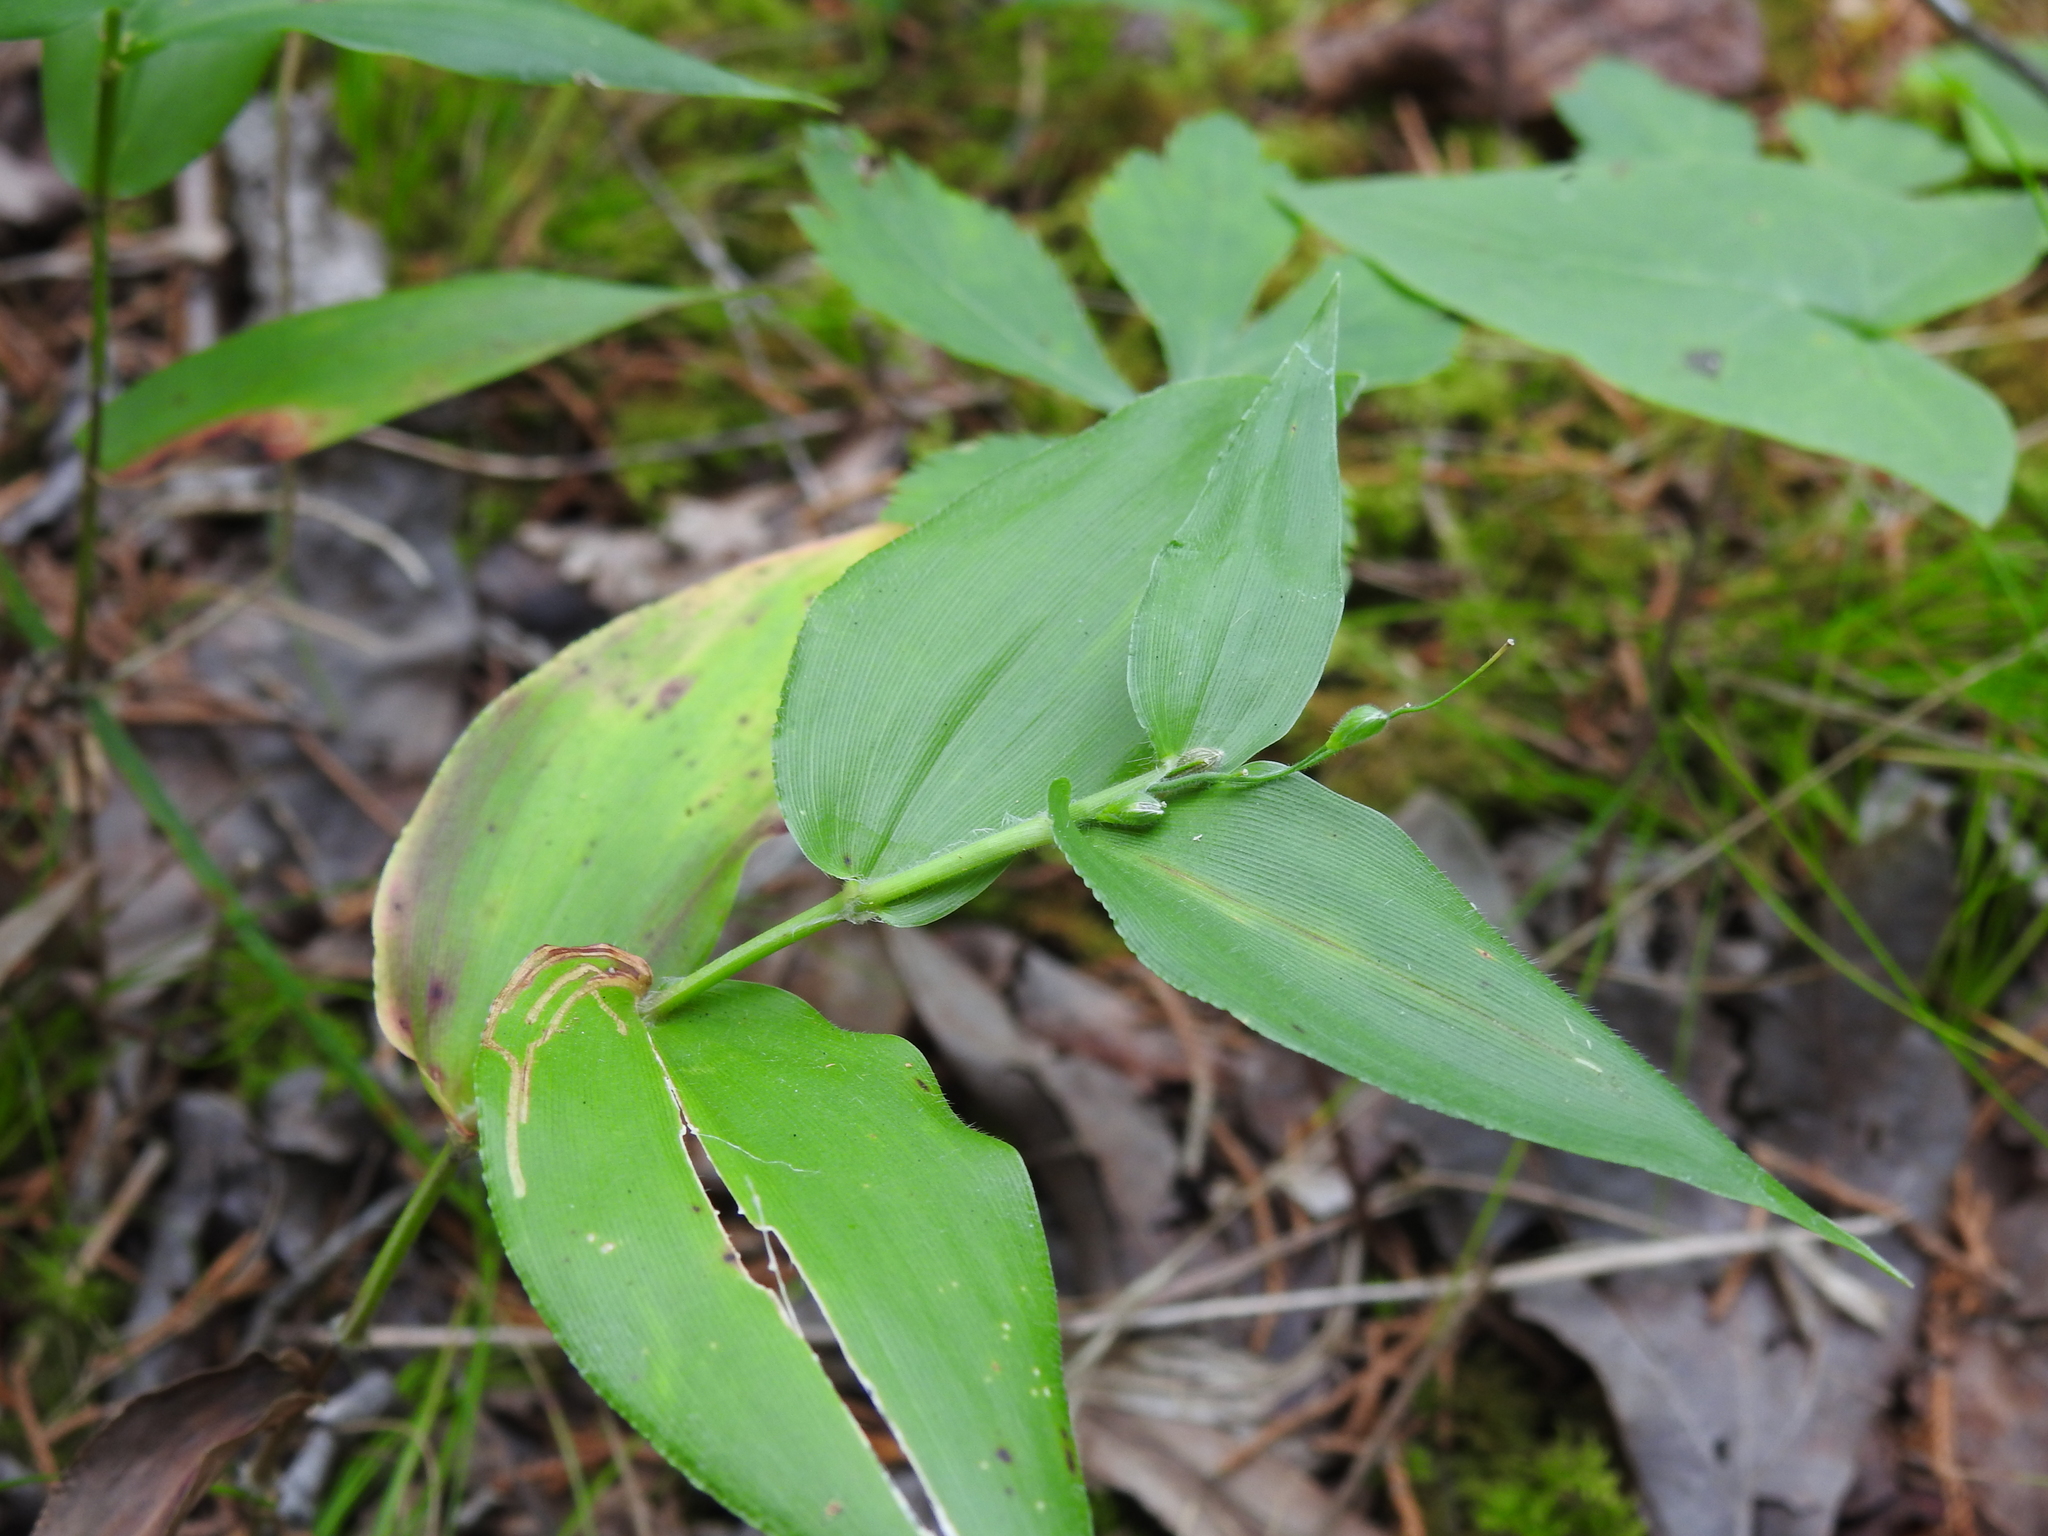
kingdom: Plantae
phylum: Tracheophyta
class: Liliopsida
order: Poales
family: Poaceae
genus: Dichanthelium
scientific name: Dichanthelium boscii
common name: Bosc's panic grass
